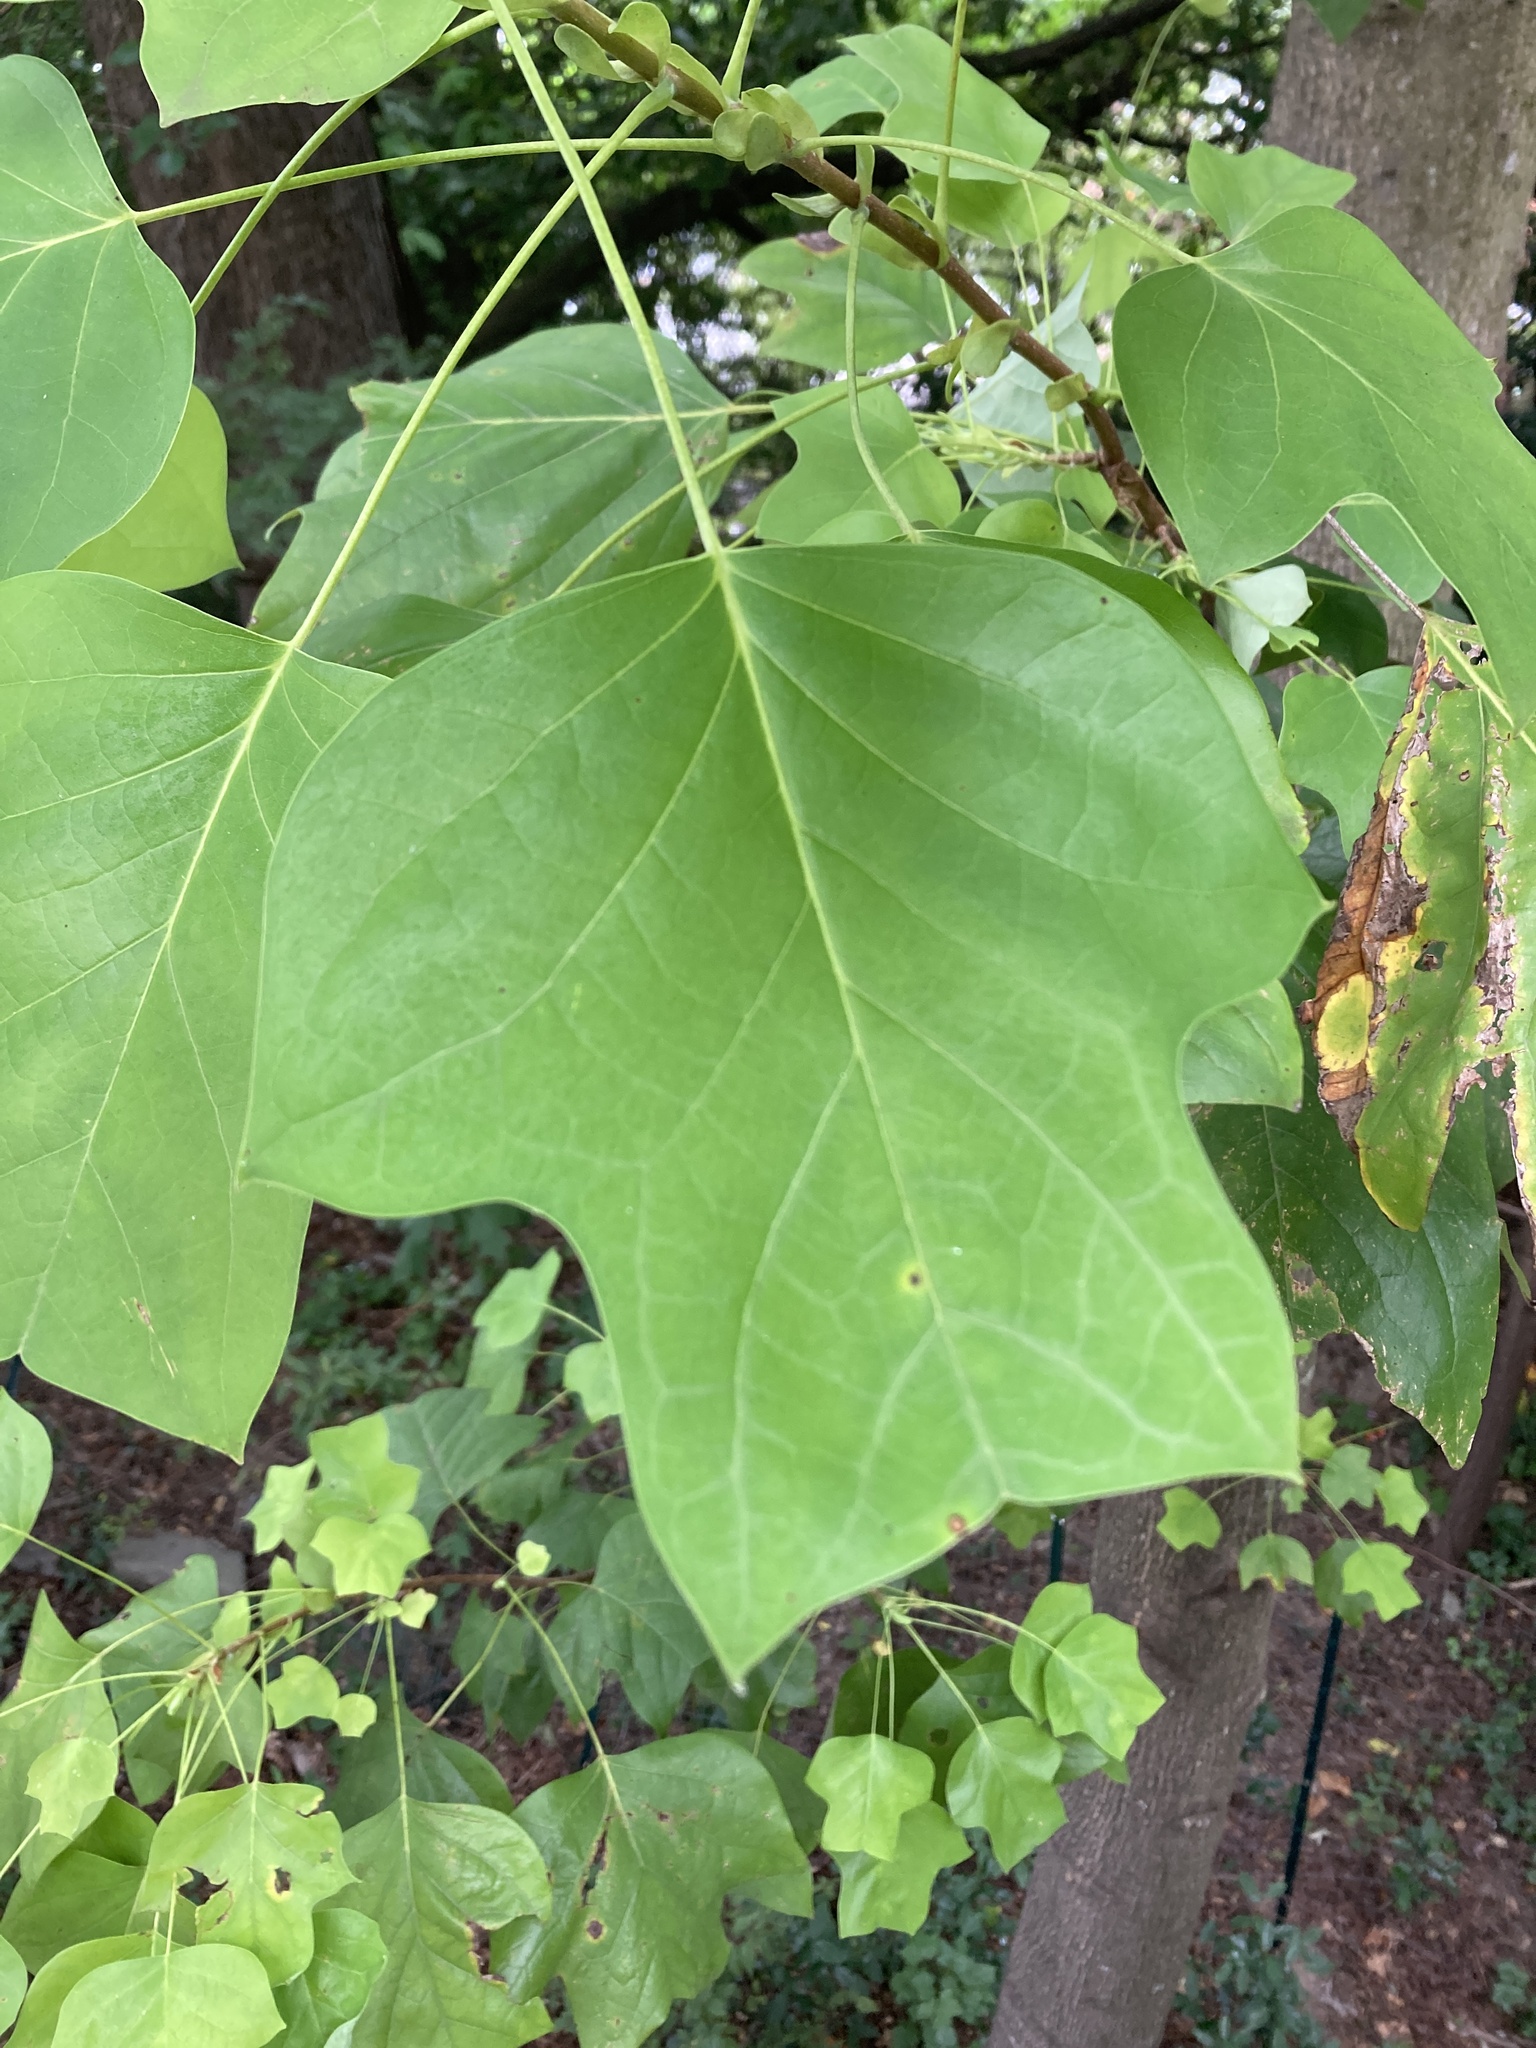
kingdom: Plantae
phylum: Tracheophyta
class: Magnoliopsida
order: Magnoliales
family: Magnoliaceae
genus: Liriodendron
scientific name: Liriodendron tulipifera
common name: Tulip tree
